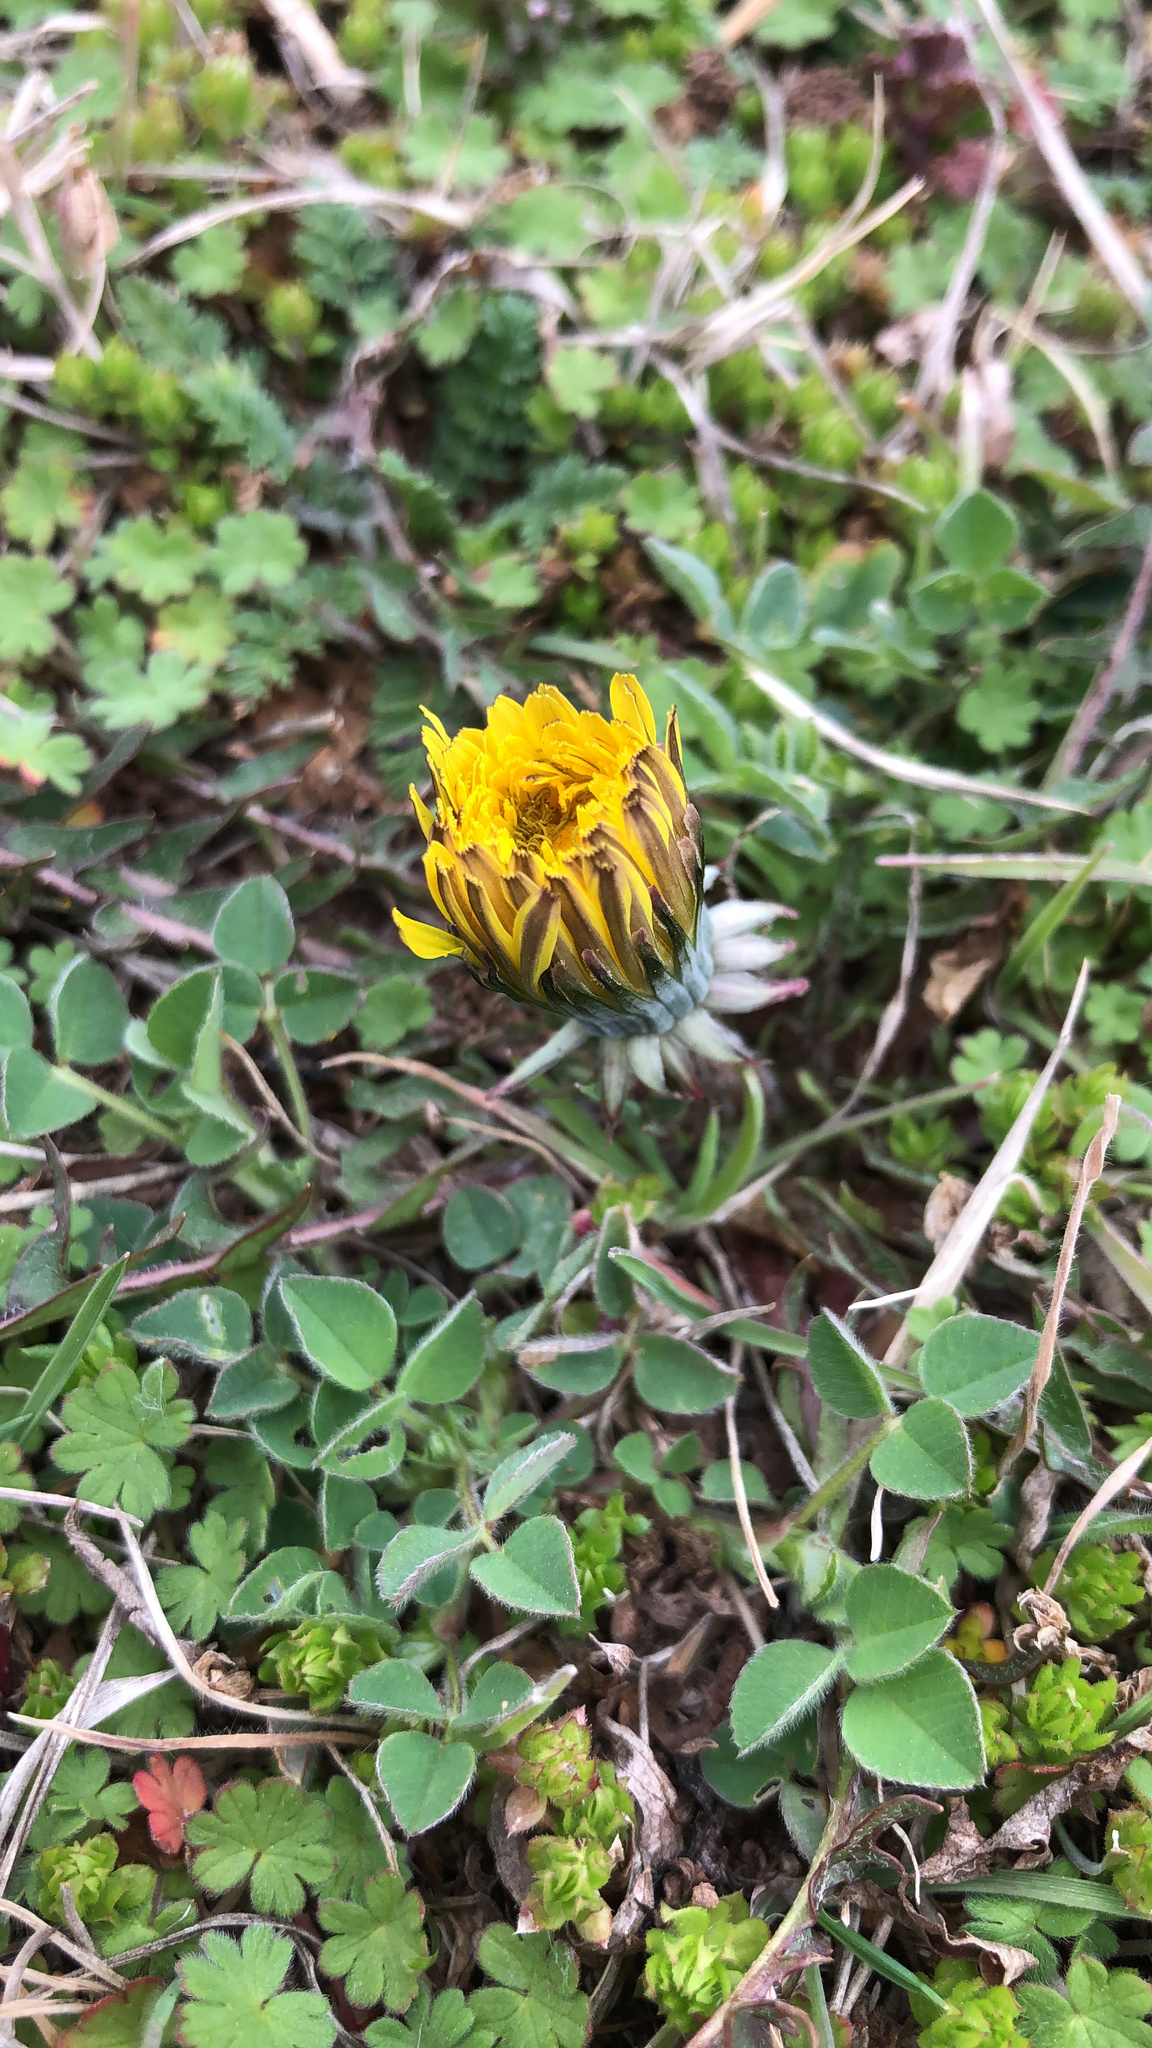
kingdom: Plantae
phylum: Tracheophyta
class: Magnoliopsida
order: Asterales
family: Asteraceae
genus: Taraxacum
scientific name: Taraxacum
